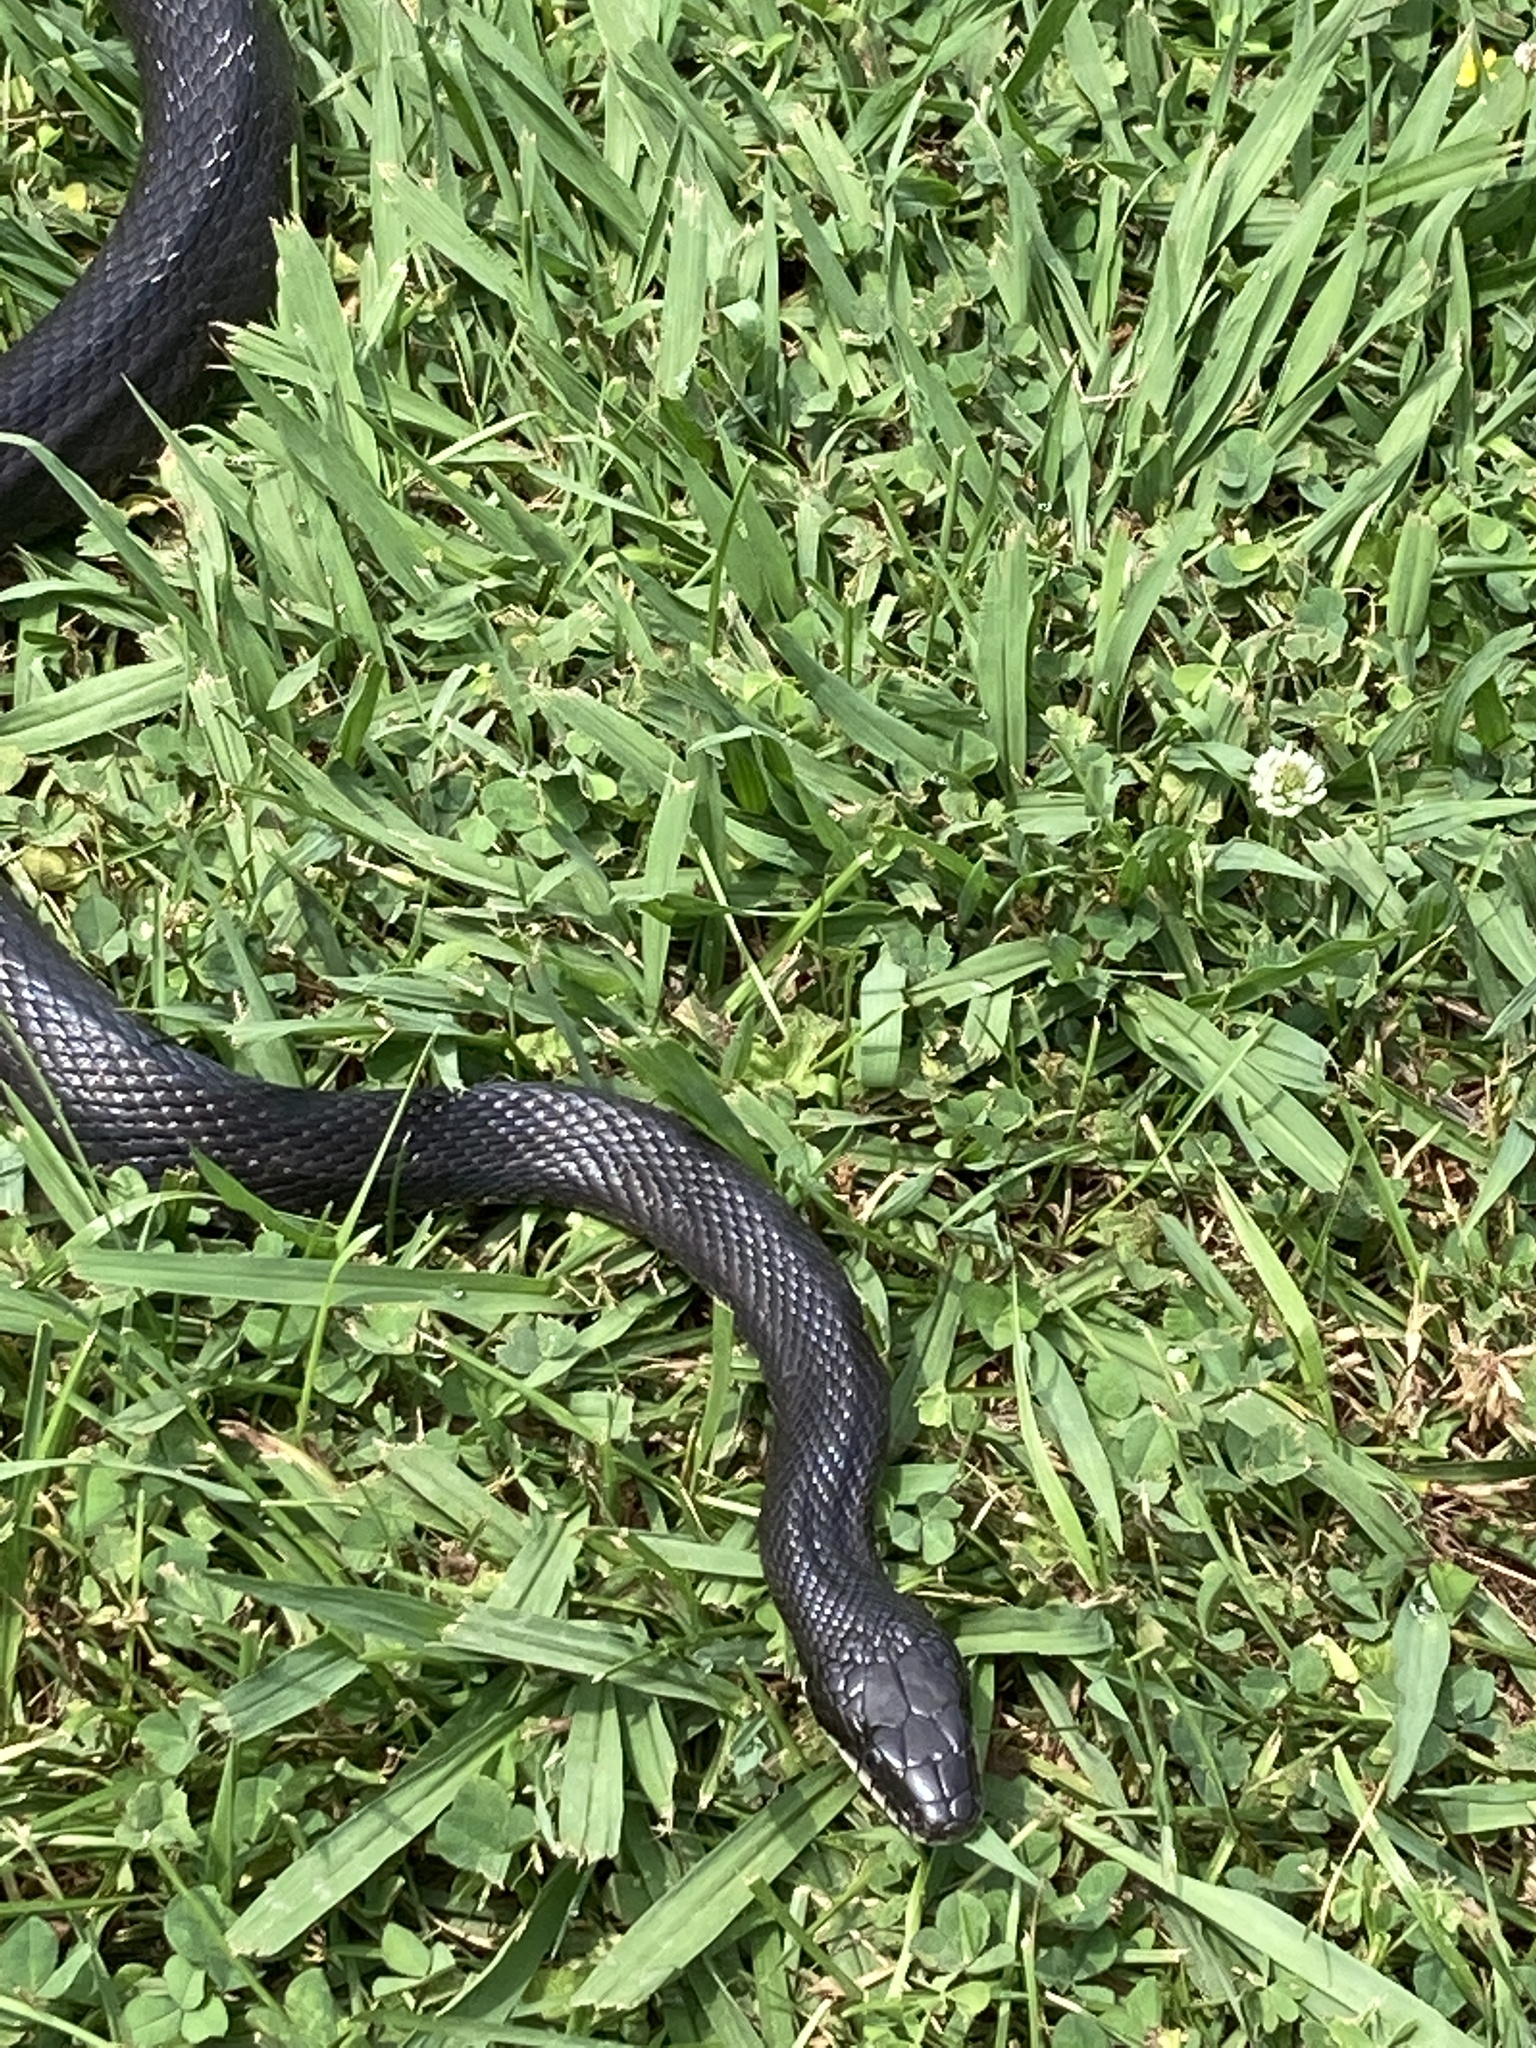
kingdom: Animalia
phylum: Chordata
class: Squamata
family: Colubridae
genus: Pantherophis
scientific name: Pantherophis alleghaniensis
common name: Eastern rat snake
